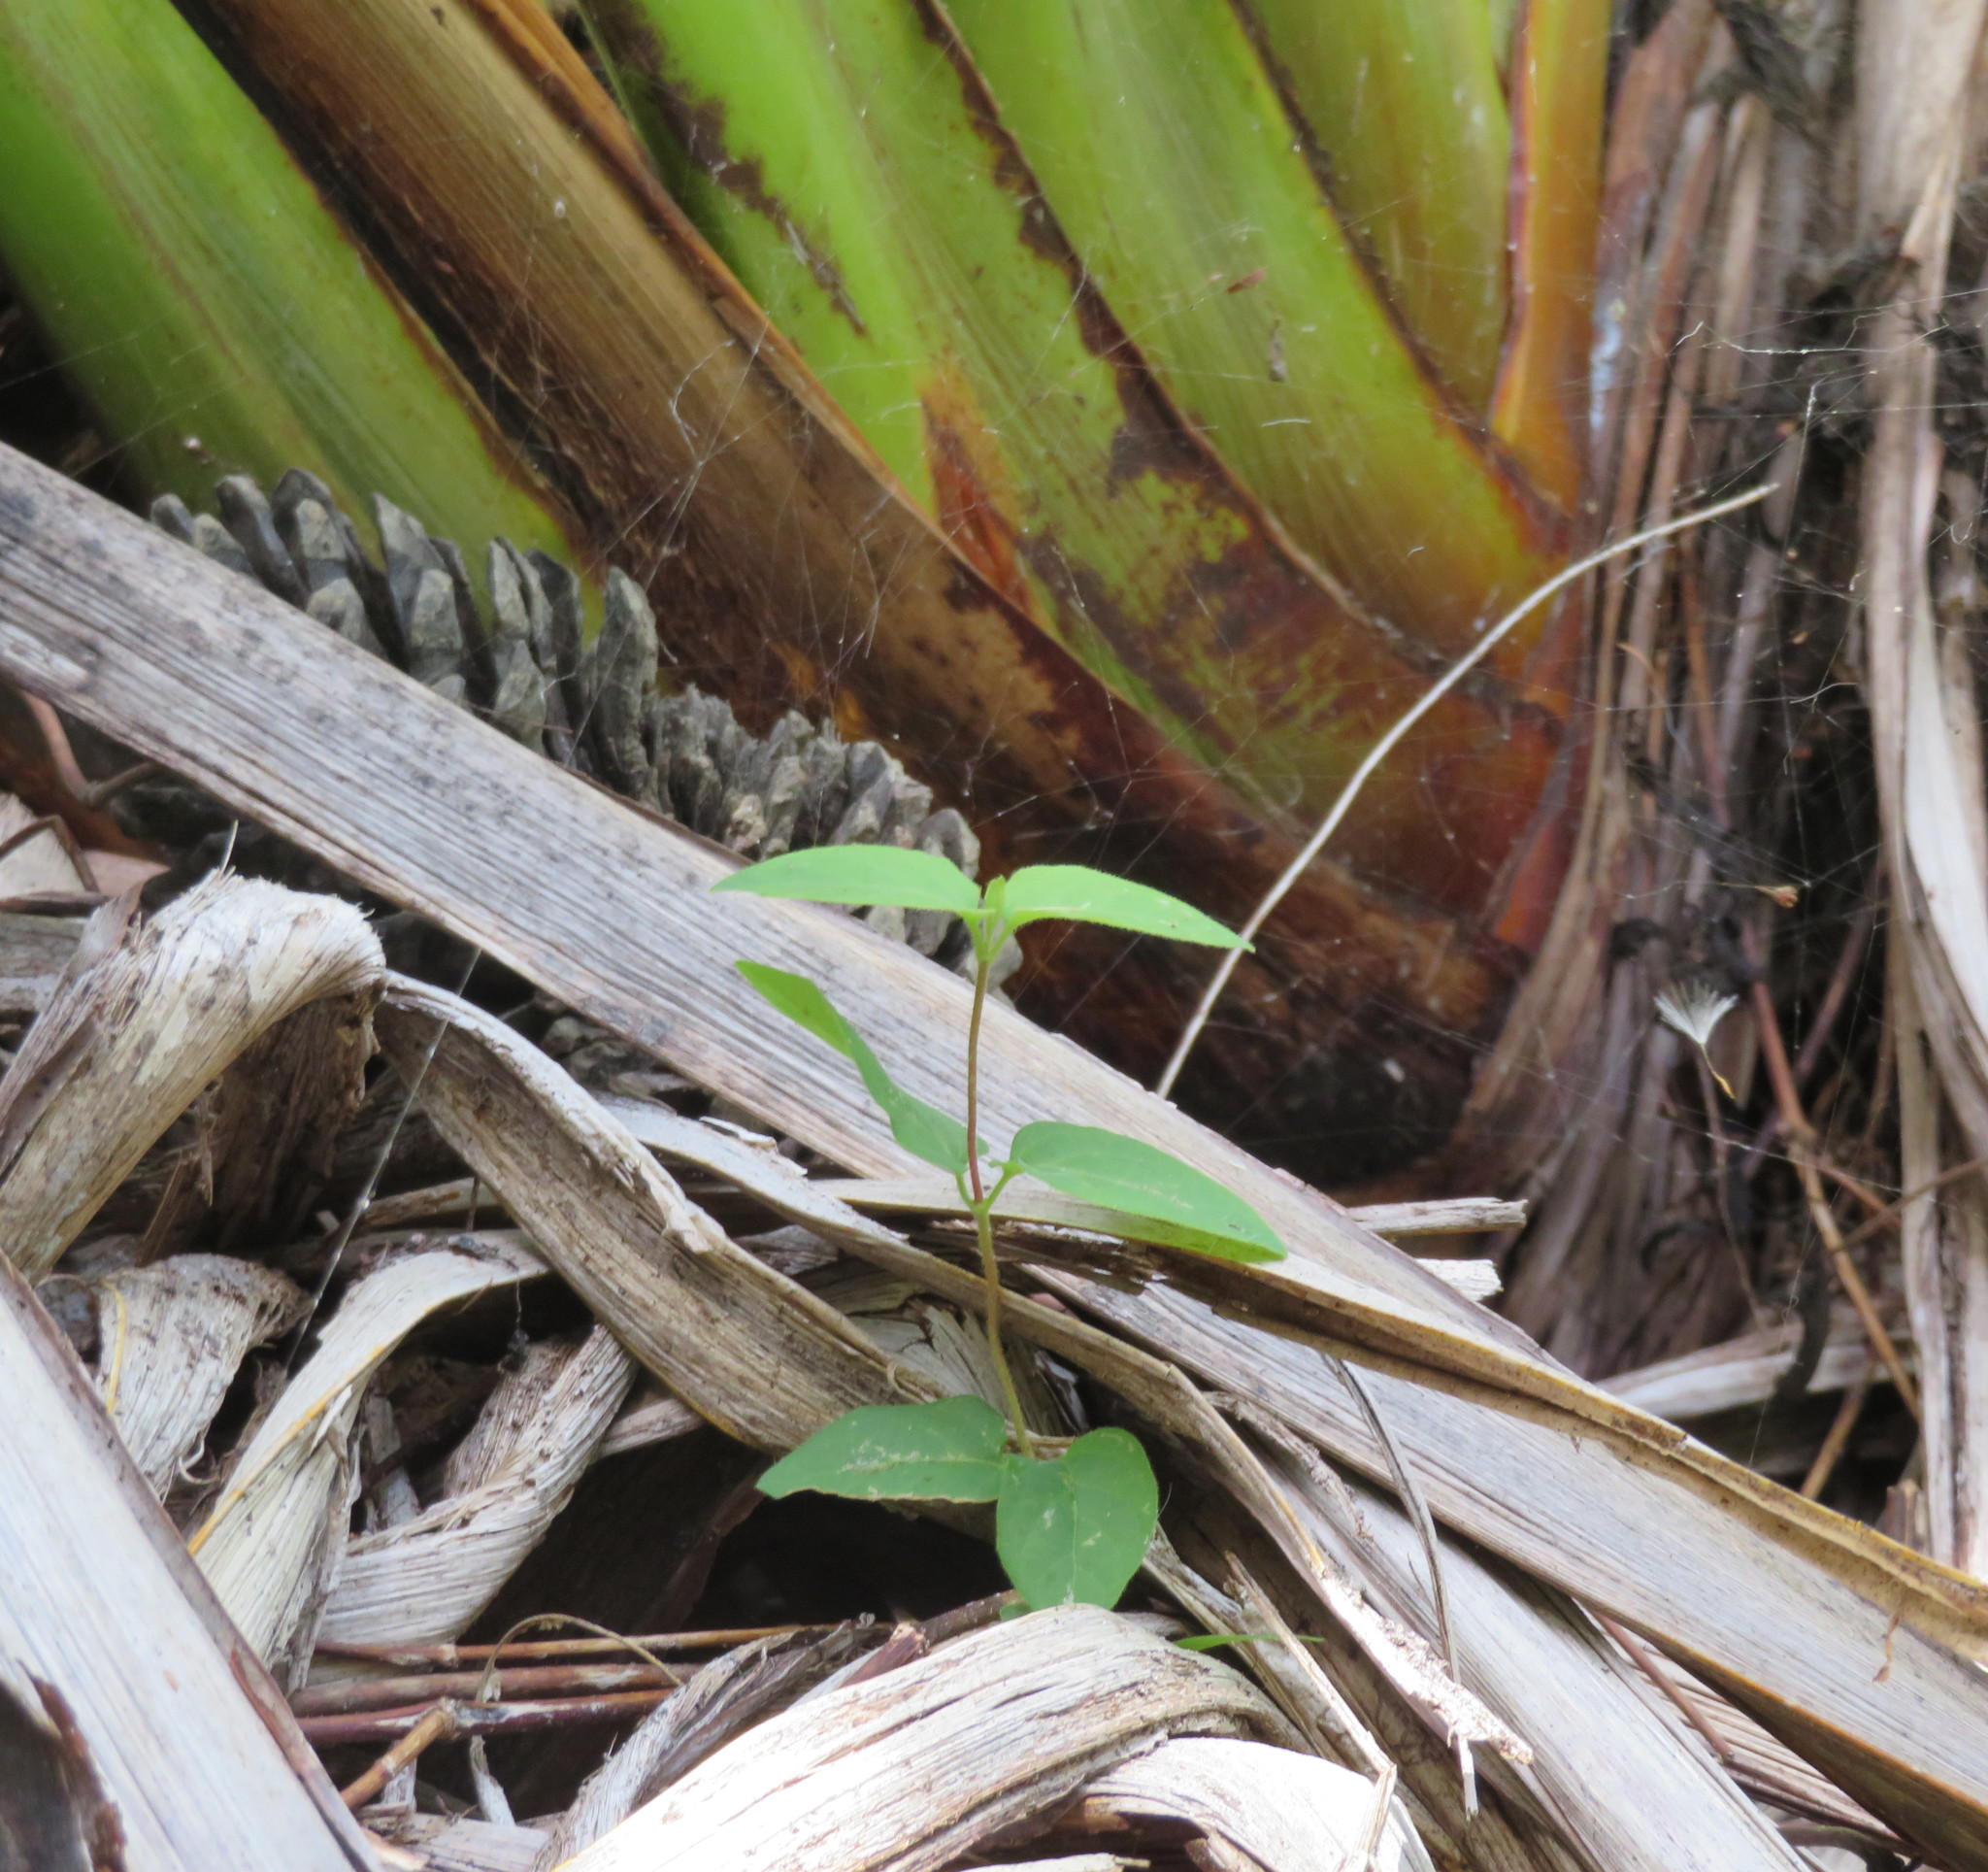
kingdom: Plantae
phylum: Tracheophyta
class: Magnoliopsida
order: Dipsacales
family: Caprifoliaceae
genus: Lonicera
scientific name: Lonicera japonica
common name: Japanese honeysuckle
